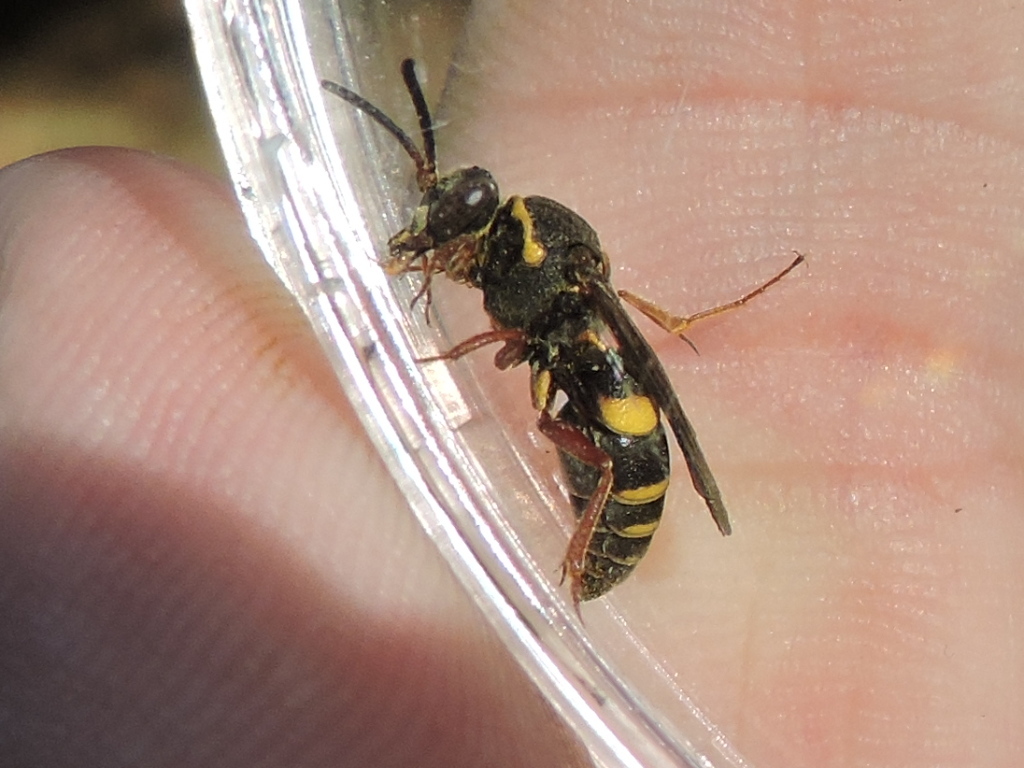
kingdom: Animalia
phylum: Arthropoda
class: Insecta
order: Hymenoptera
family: Crabronidae
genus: Nysson
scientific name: Nysson aequalis
